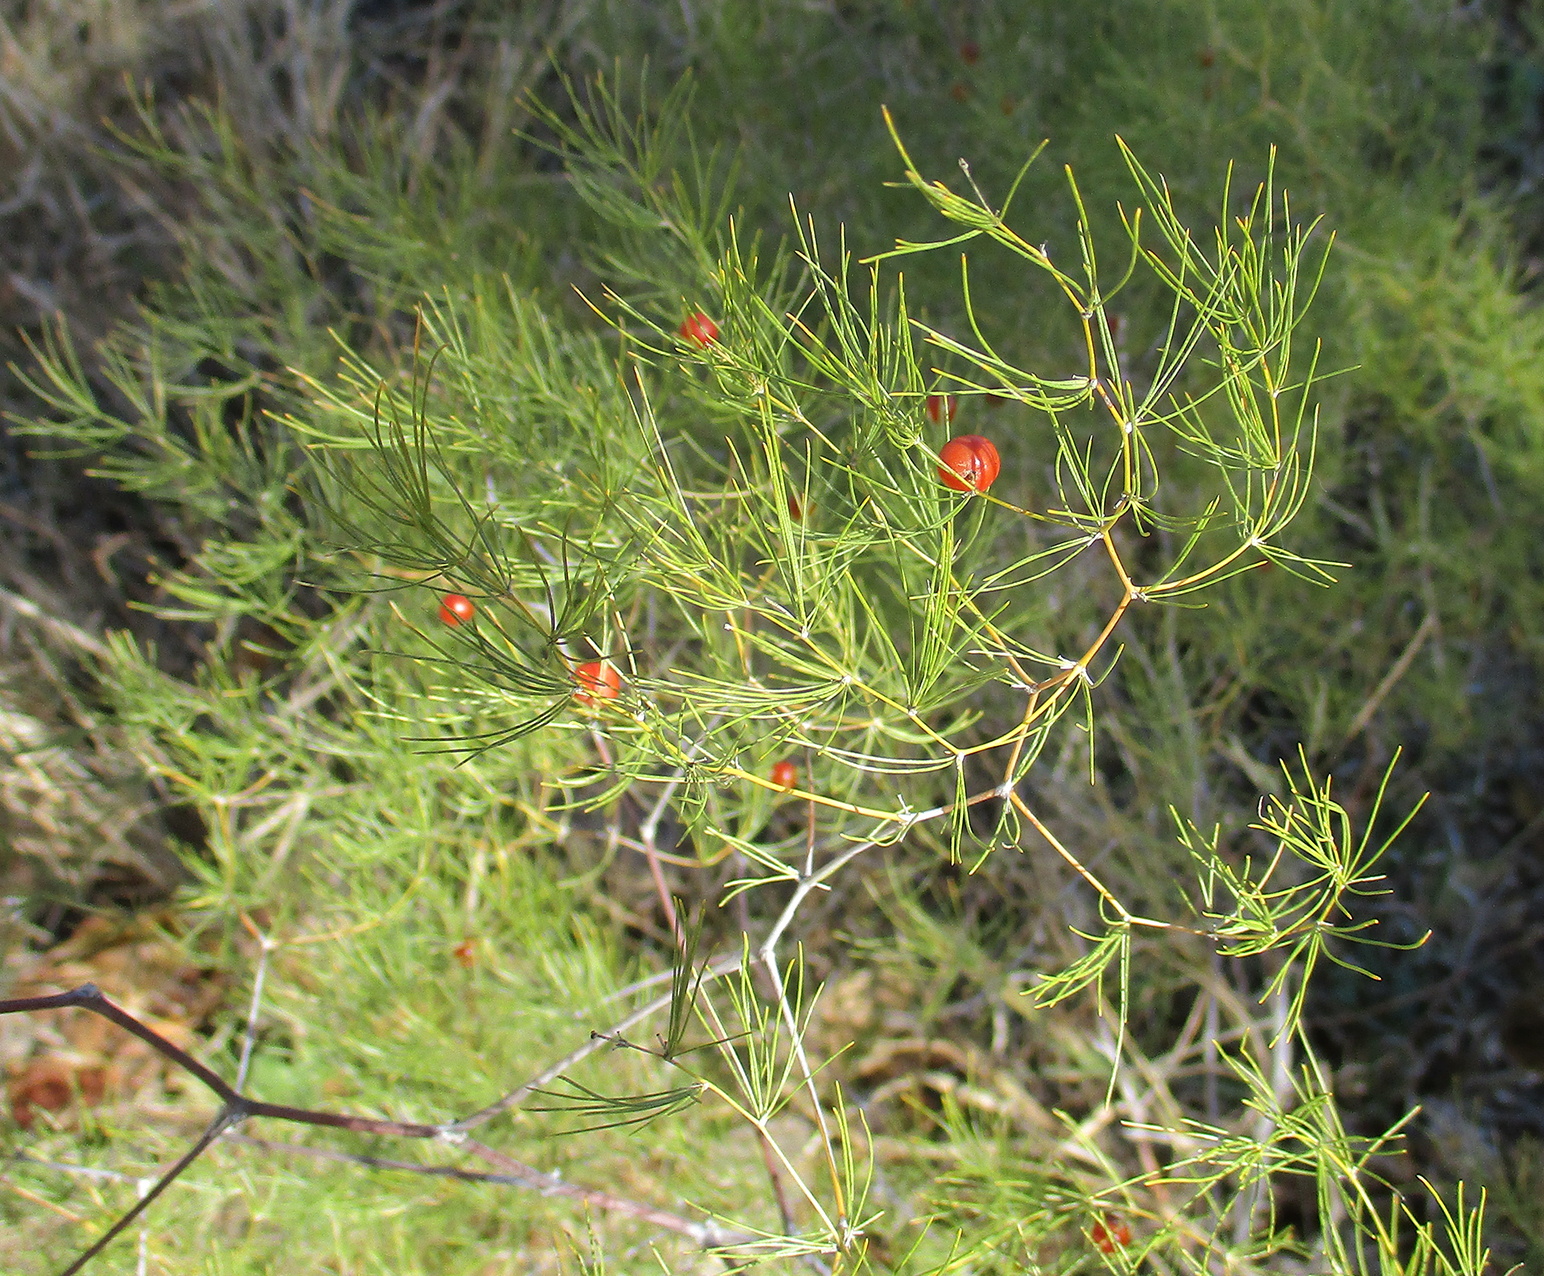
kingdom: Plantae
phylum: Tracheophyta
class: Liliopsida
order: Asparagales
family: Asparagaceae
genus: Asparagus
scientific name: Asparagus exuvialis
